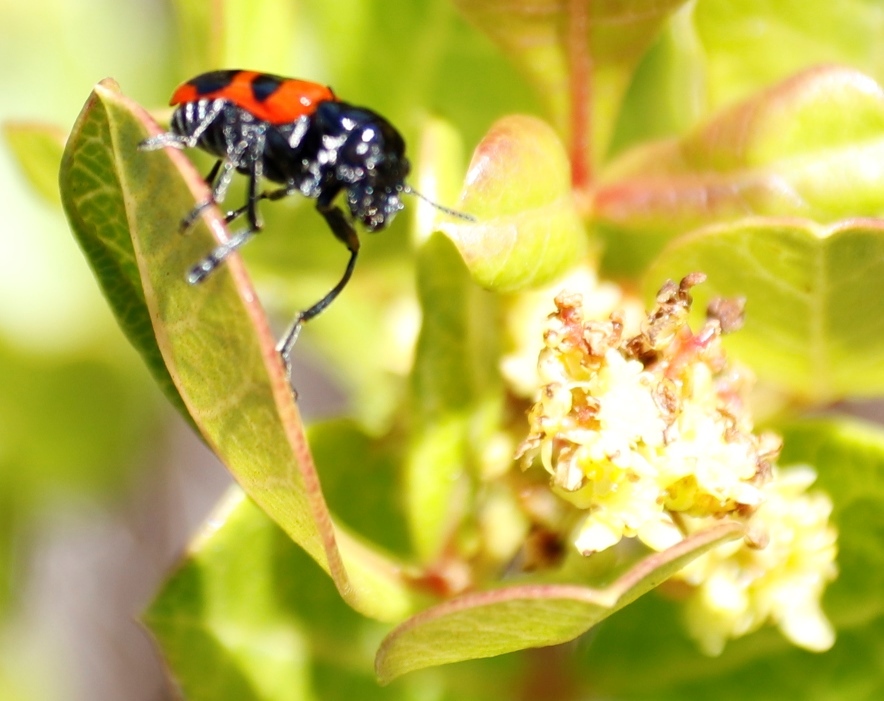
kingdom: Plantae
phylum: Tracheophyta
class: Magnoliopsida
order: Sapindales
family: Anacardiaceae
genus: Searsia
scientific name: Searsia laevigata
